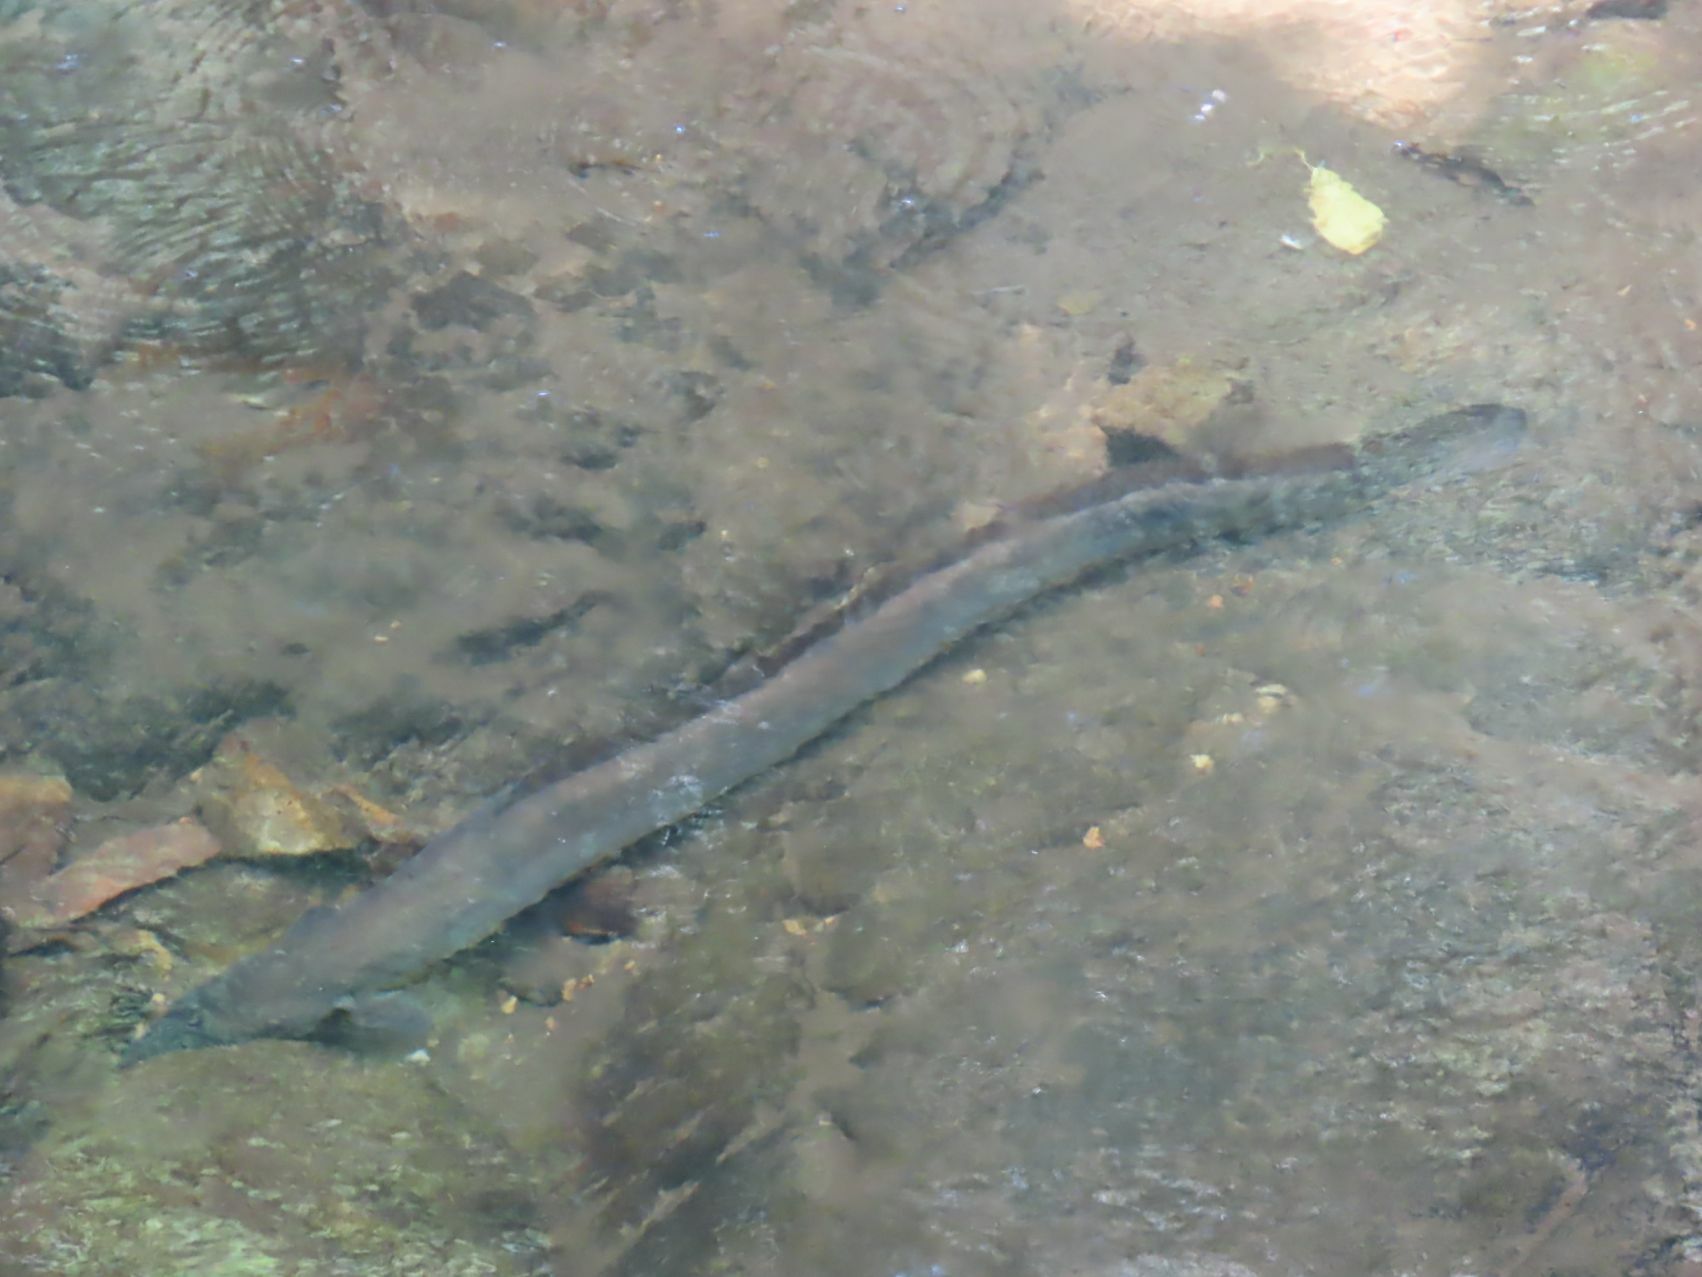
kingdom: Animalia
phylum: Chordata
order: Anguilliformes
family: Anguillidae
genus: Anguilla
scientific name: Anguilla mossambica
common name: African longfin eel
